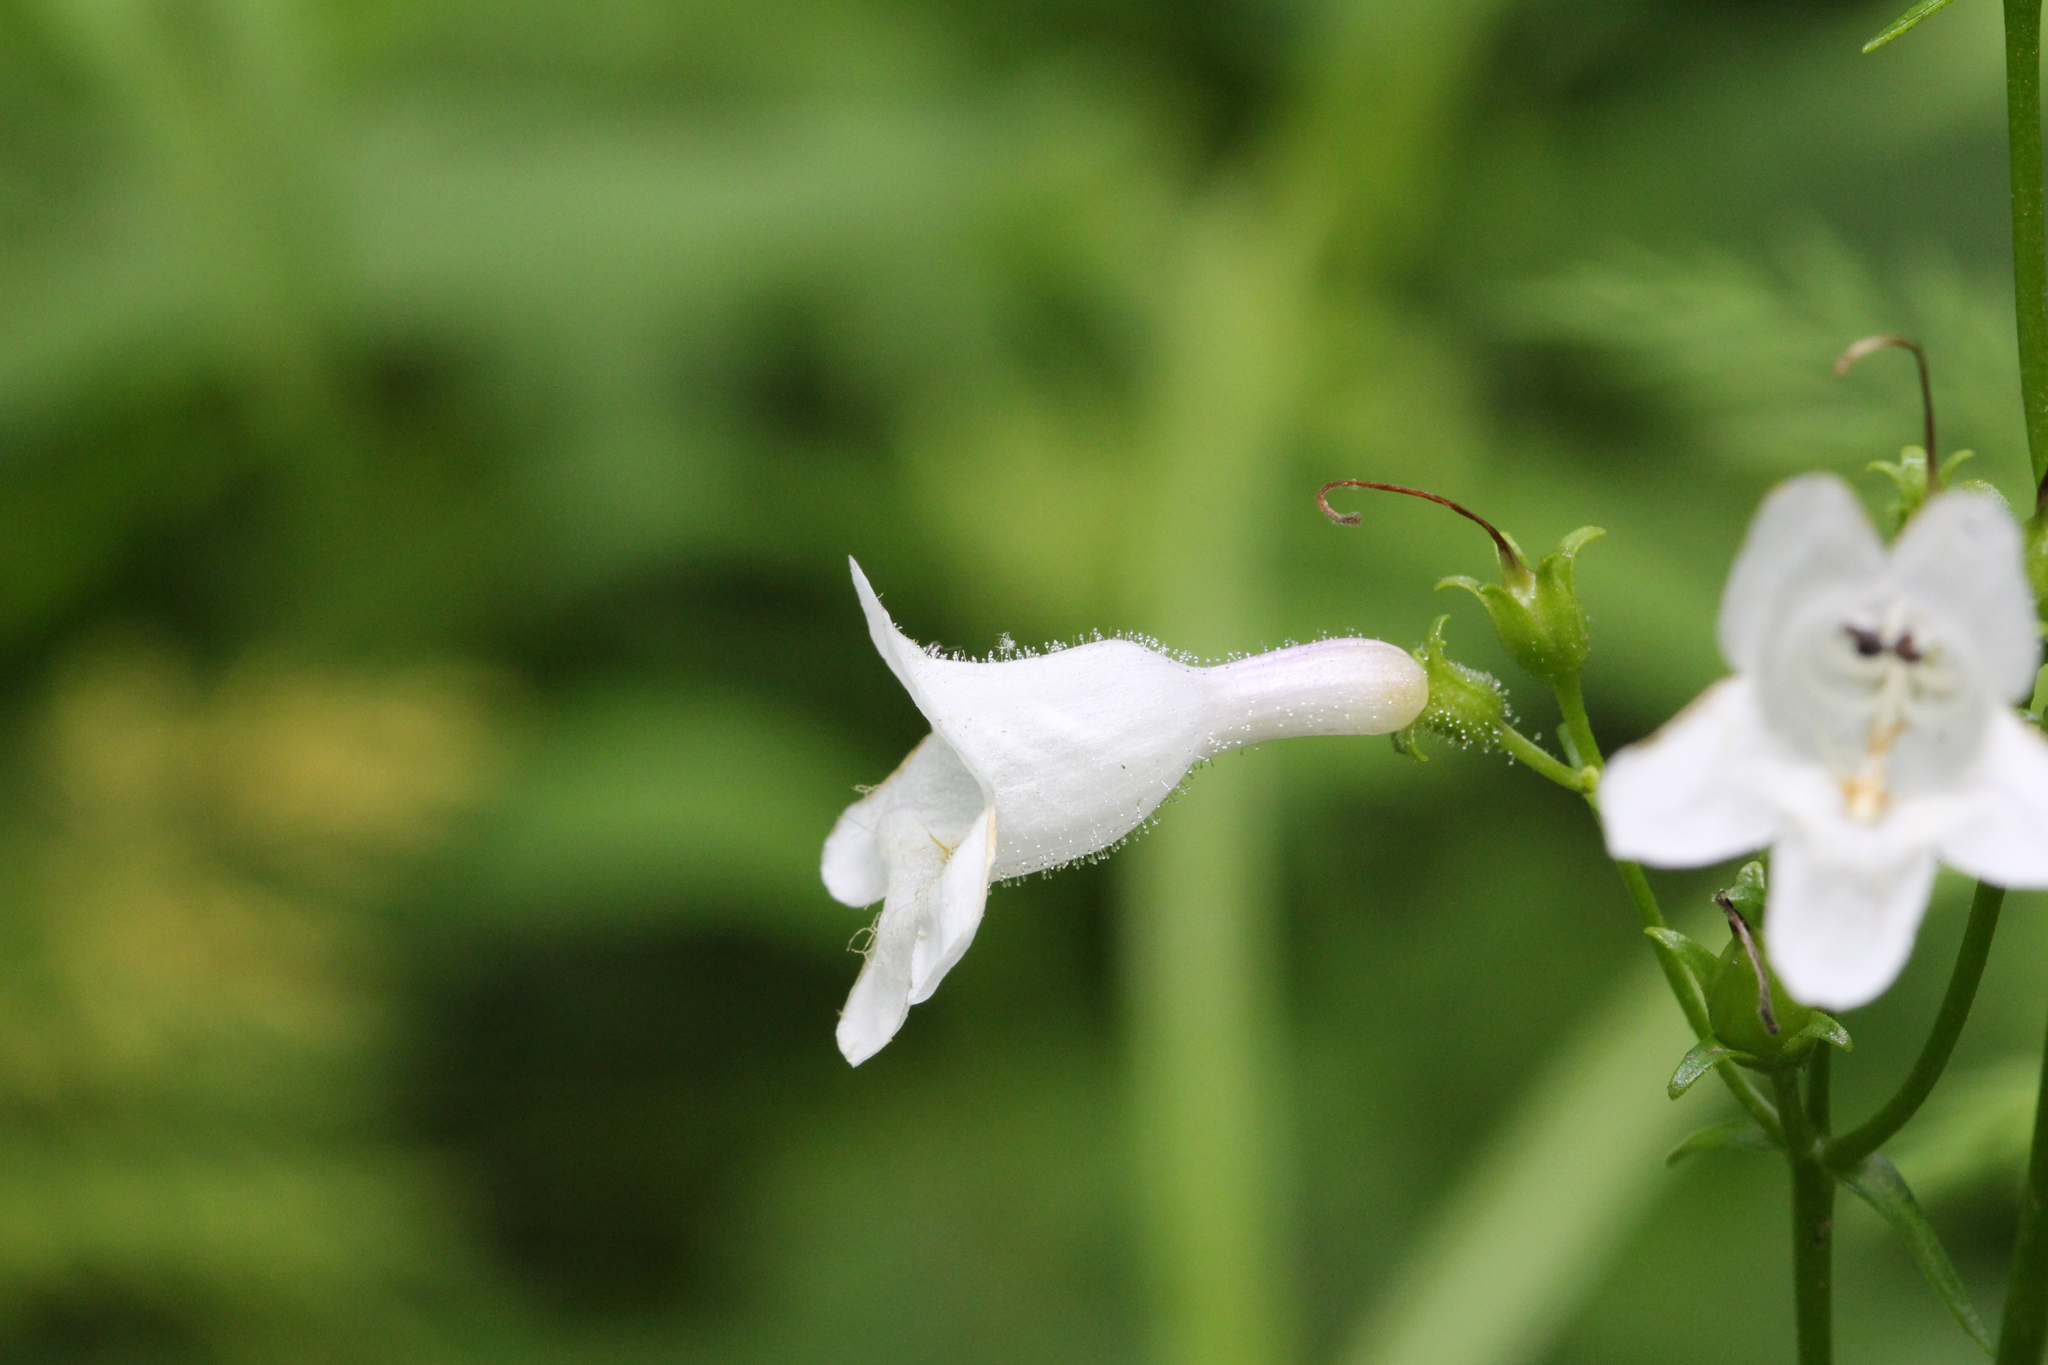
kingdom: Plantae
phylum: Tracheophyta
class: Magnoliopsida
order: Lamiales
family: Plantaginaceae
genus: Penstemon
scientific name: Penstemon digitalis
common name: Foxglove beardtongue
